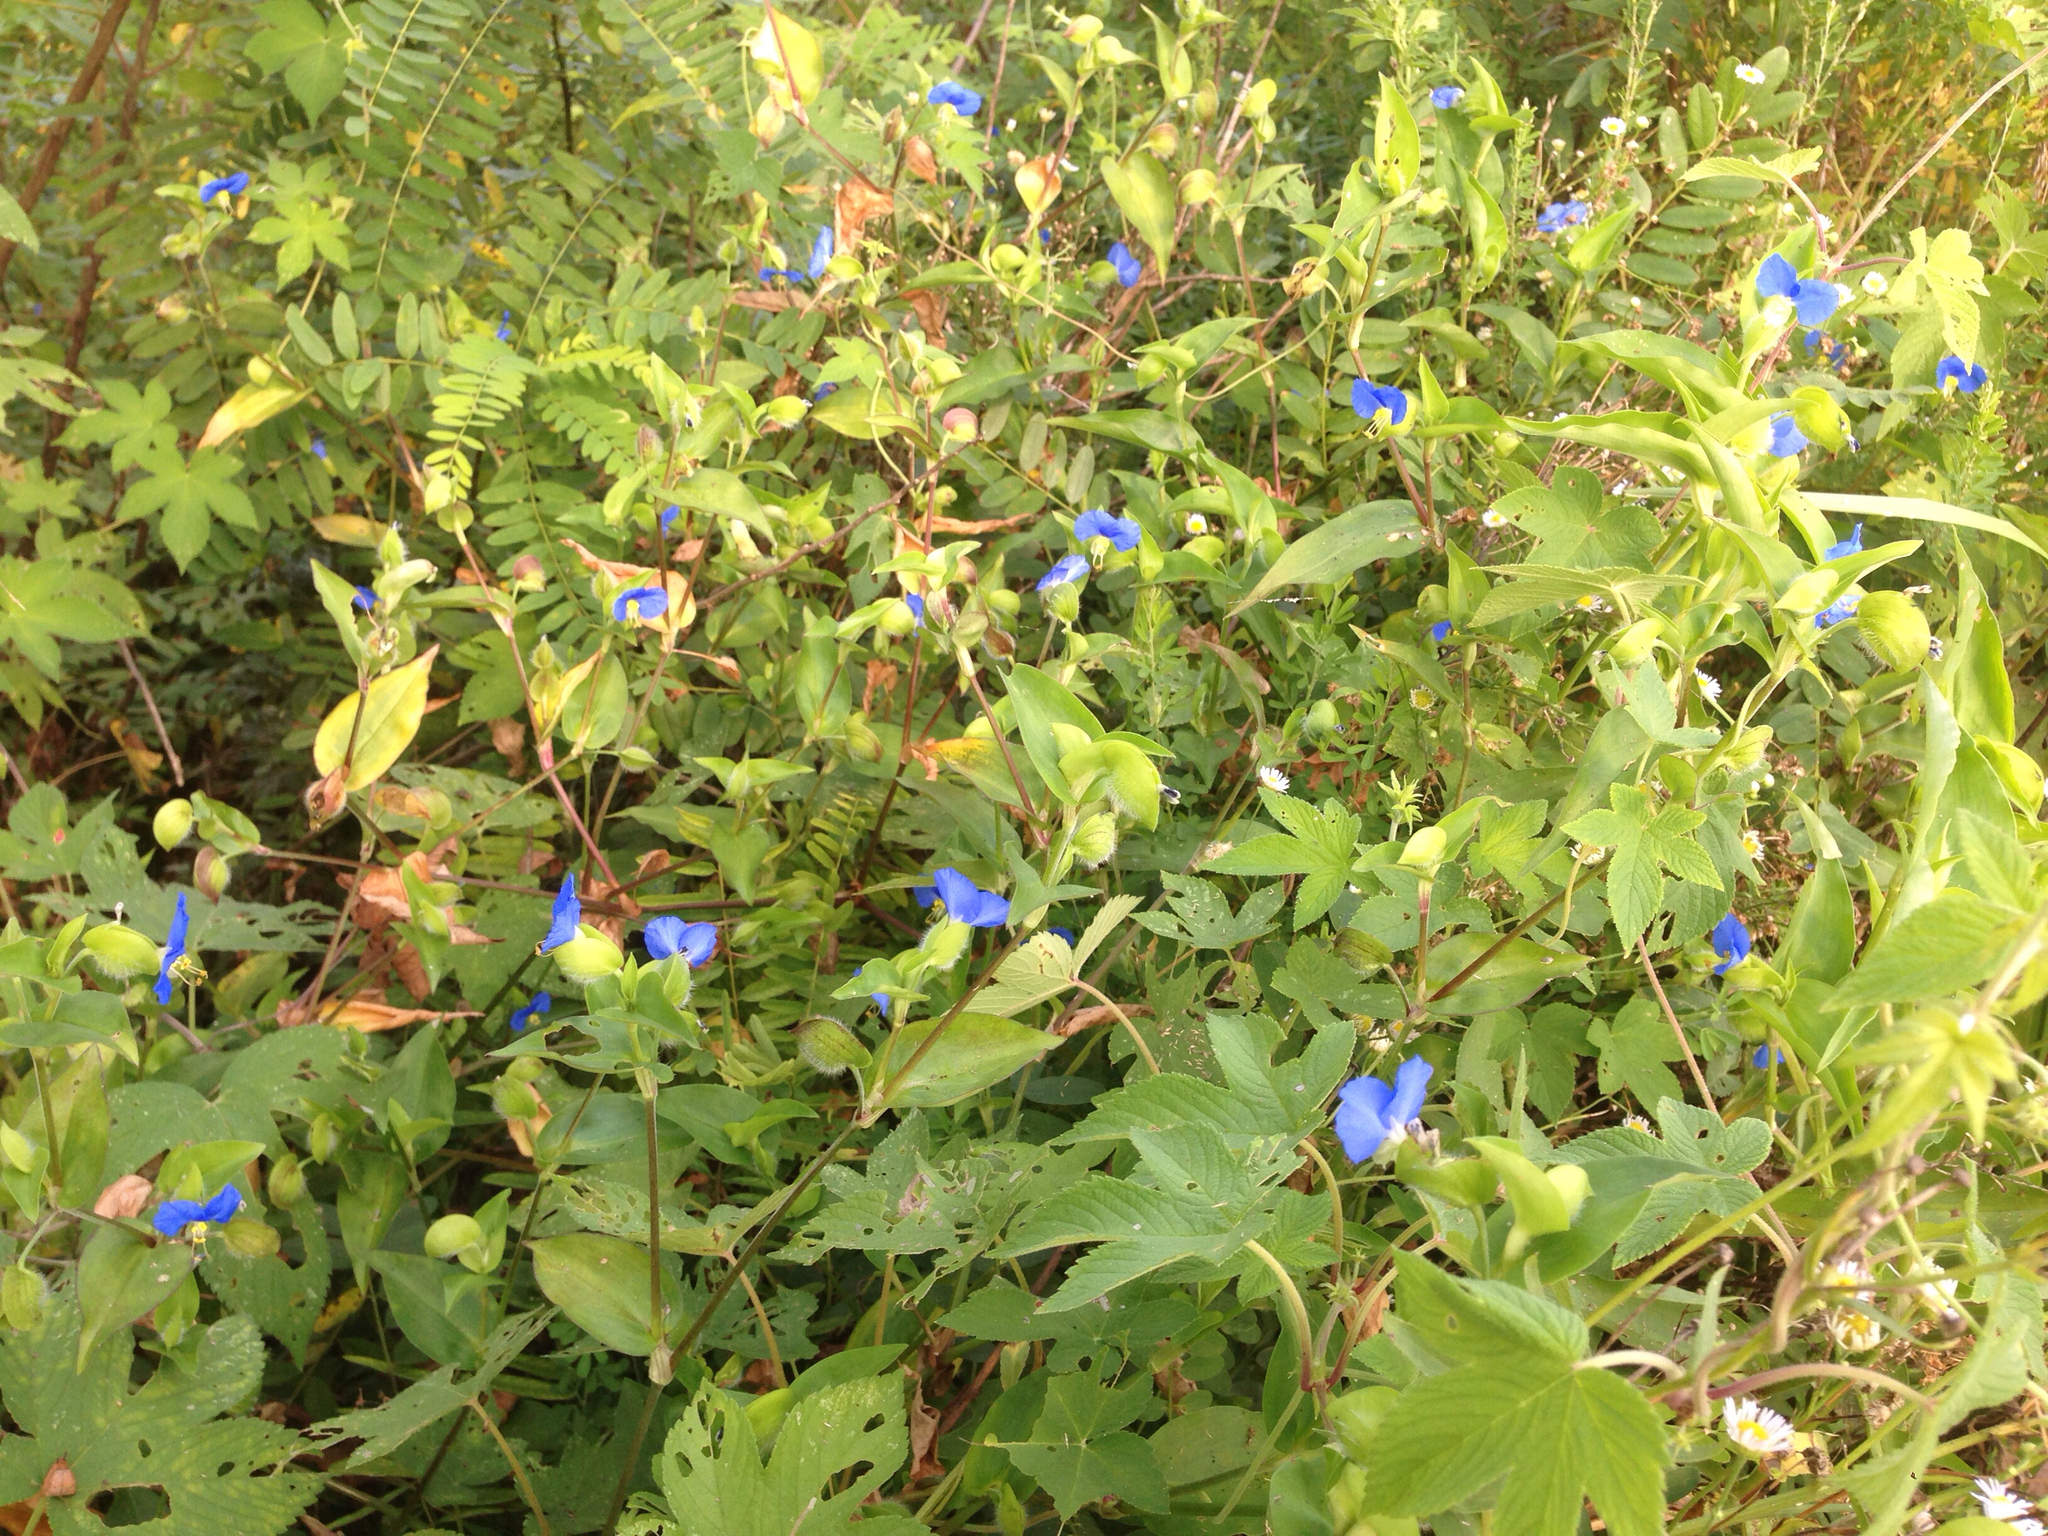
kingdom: Plantae
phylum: Tracheophyta
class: Liliopsida
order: Commelinales
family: Commelinaceae
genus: Commelina
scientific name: Commelina communis
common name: Asiatic dayflower
